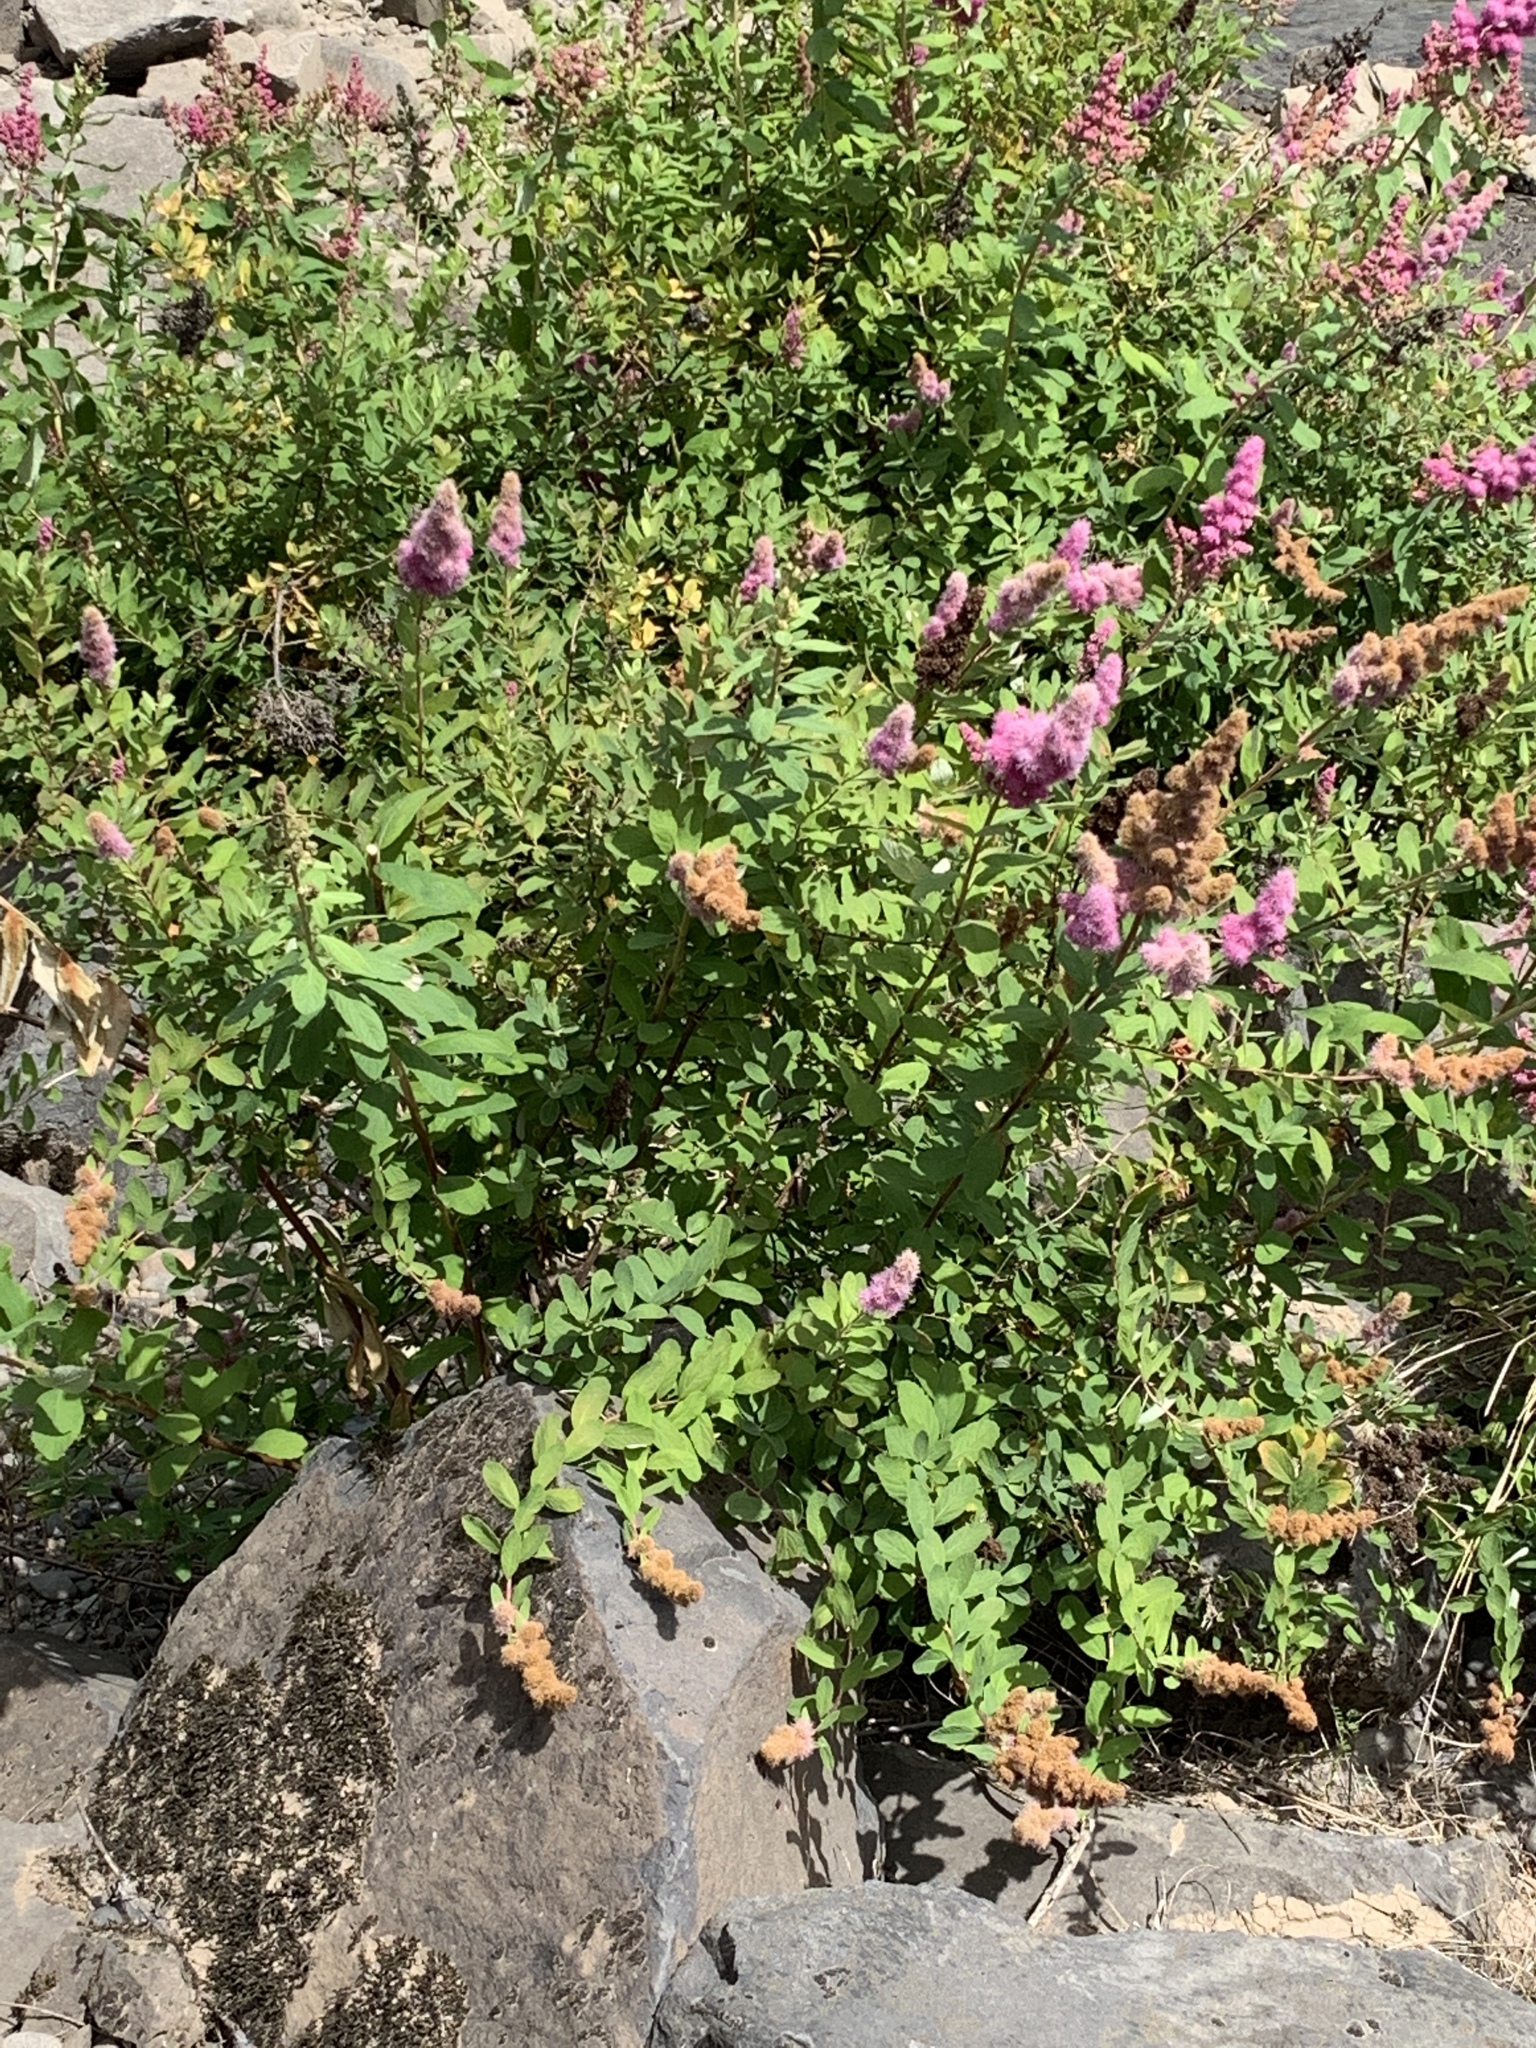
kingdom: Plantae
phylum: Tracheophyta
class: Magnoliopsida
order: Rosales
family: Rosaceae
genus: Spiraea
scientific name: Spiraea douglasii
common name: Steeplebush
